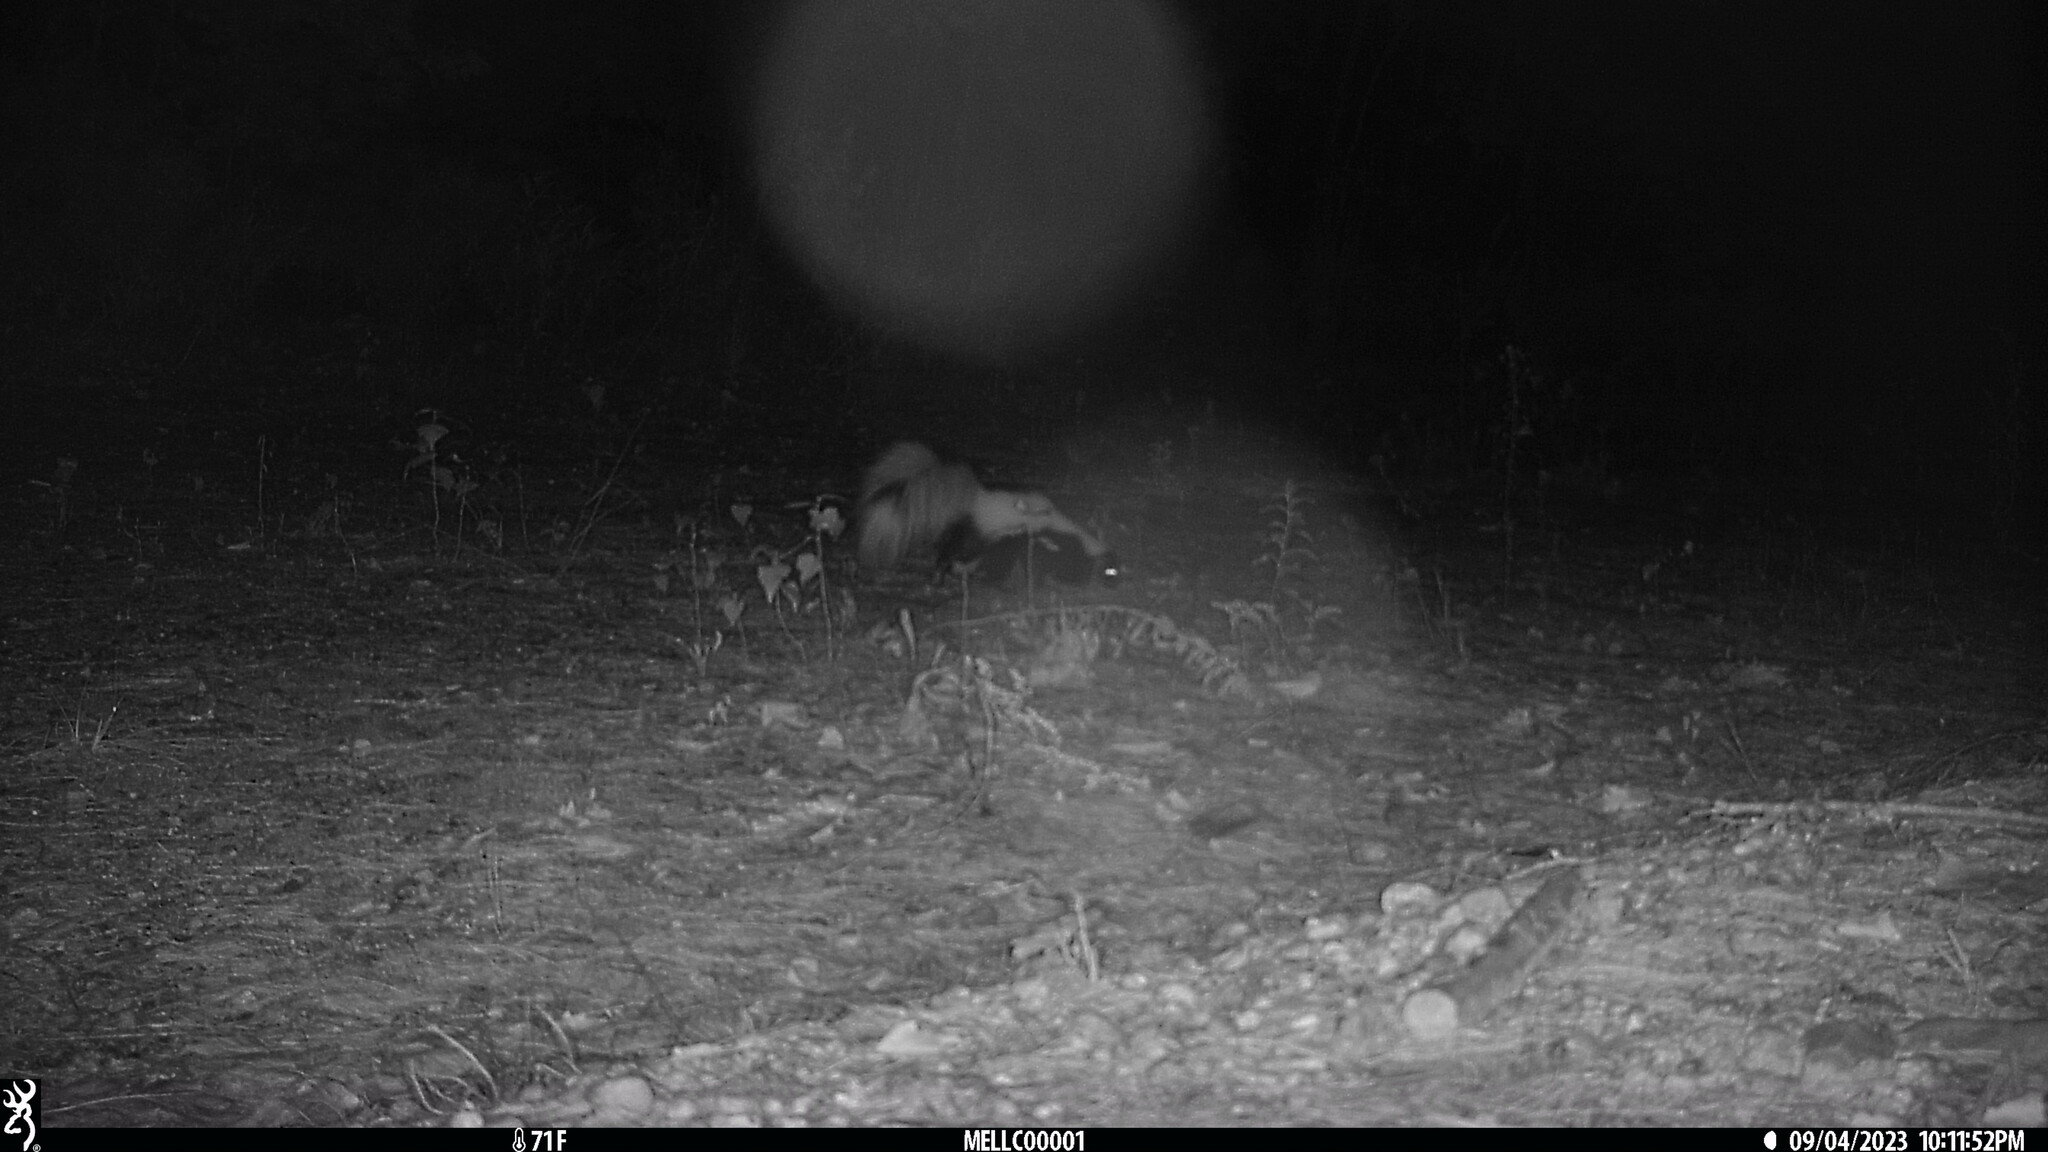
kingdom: Animalia
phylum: Chordata
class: Mammalia
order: Carnivora
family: Mephitidae
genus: Mephitis
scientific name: Mephitis mephitis
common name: Striped skunk
